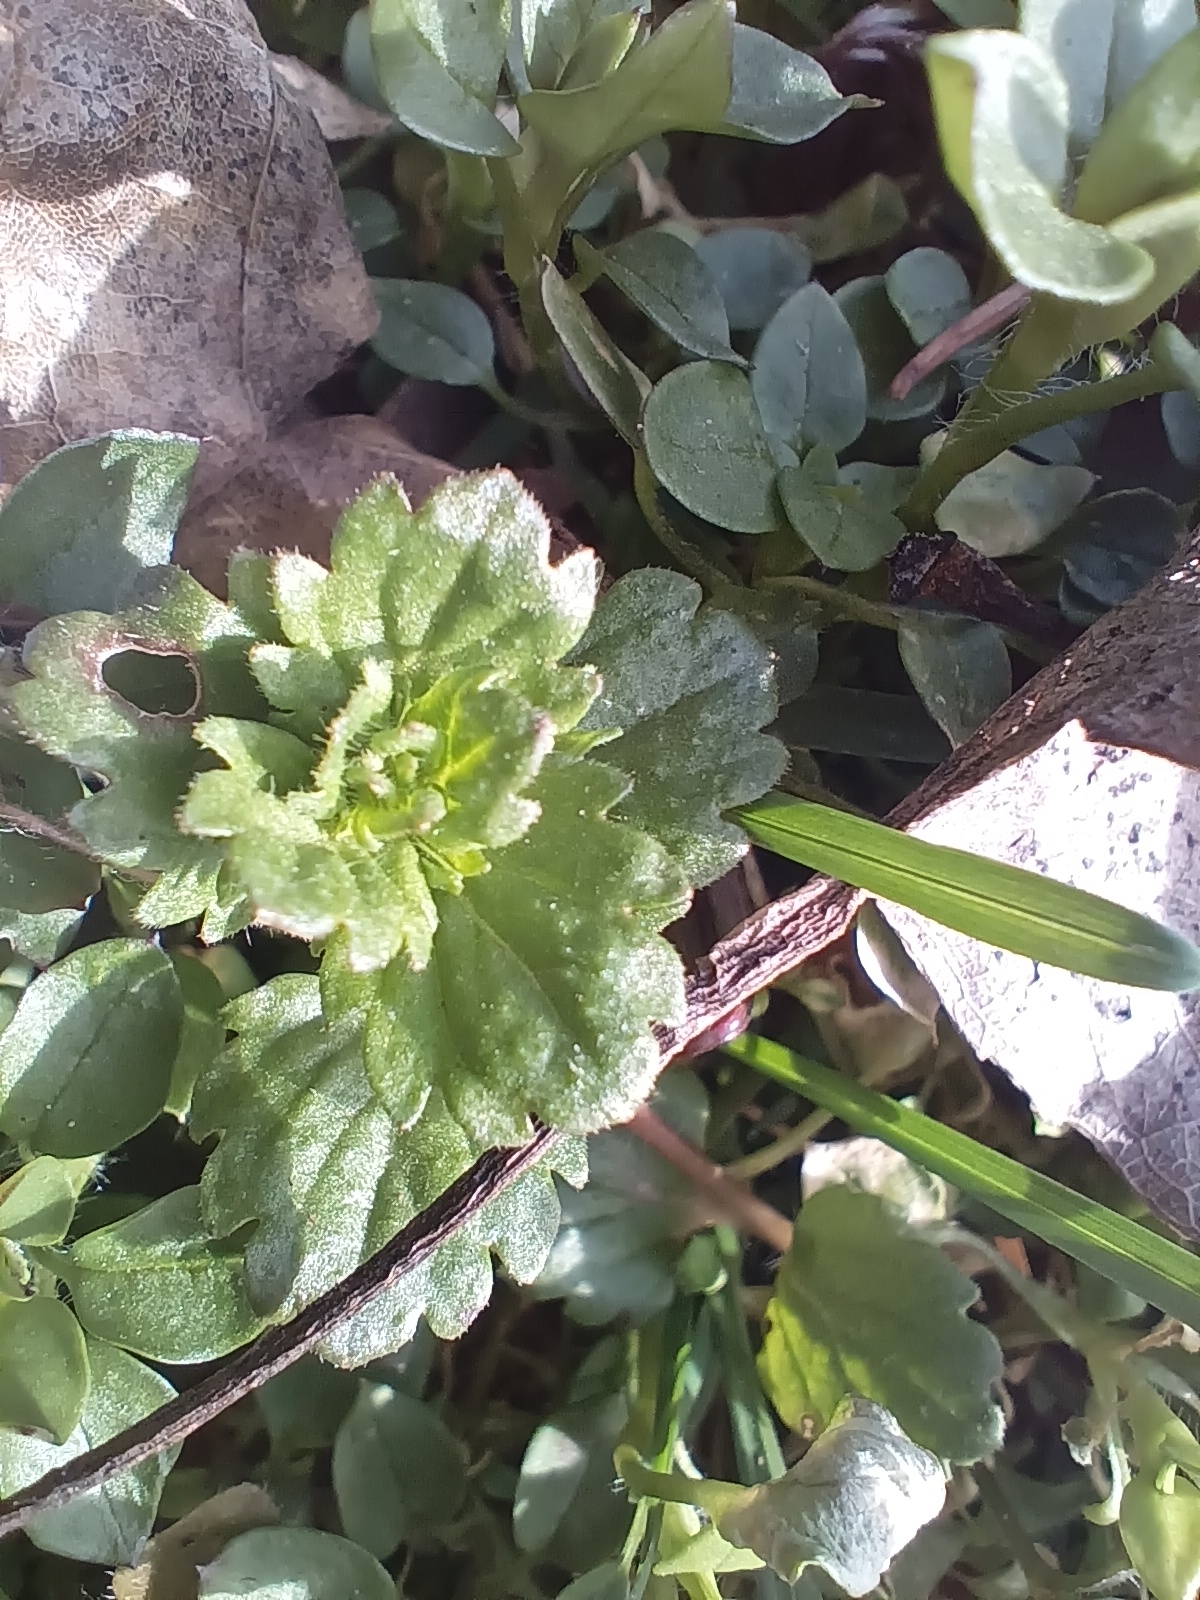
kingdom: Plantae
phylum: Tracheophyta
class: Magnoliopsida
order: Lamiales
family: Plantaginaceae
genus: Veronica
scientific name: Veronica persica
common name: Common field-speedwell
